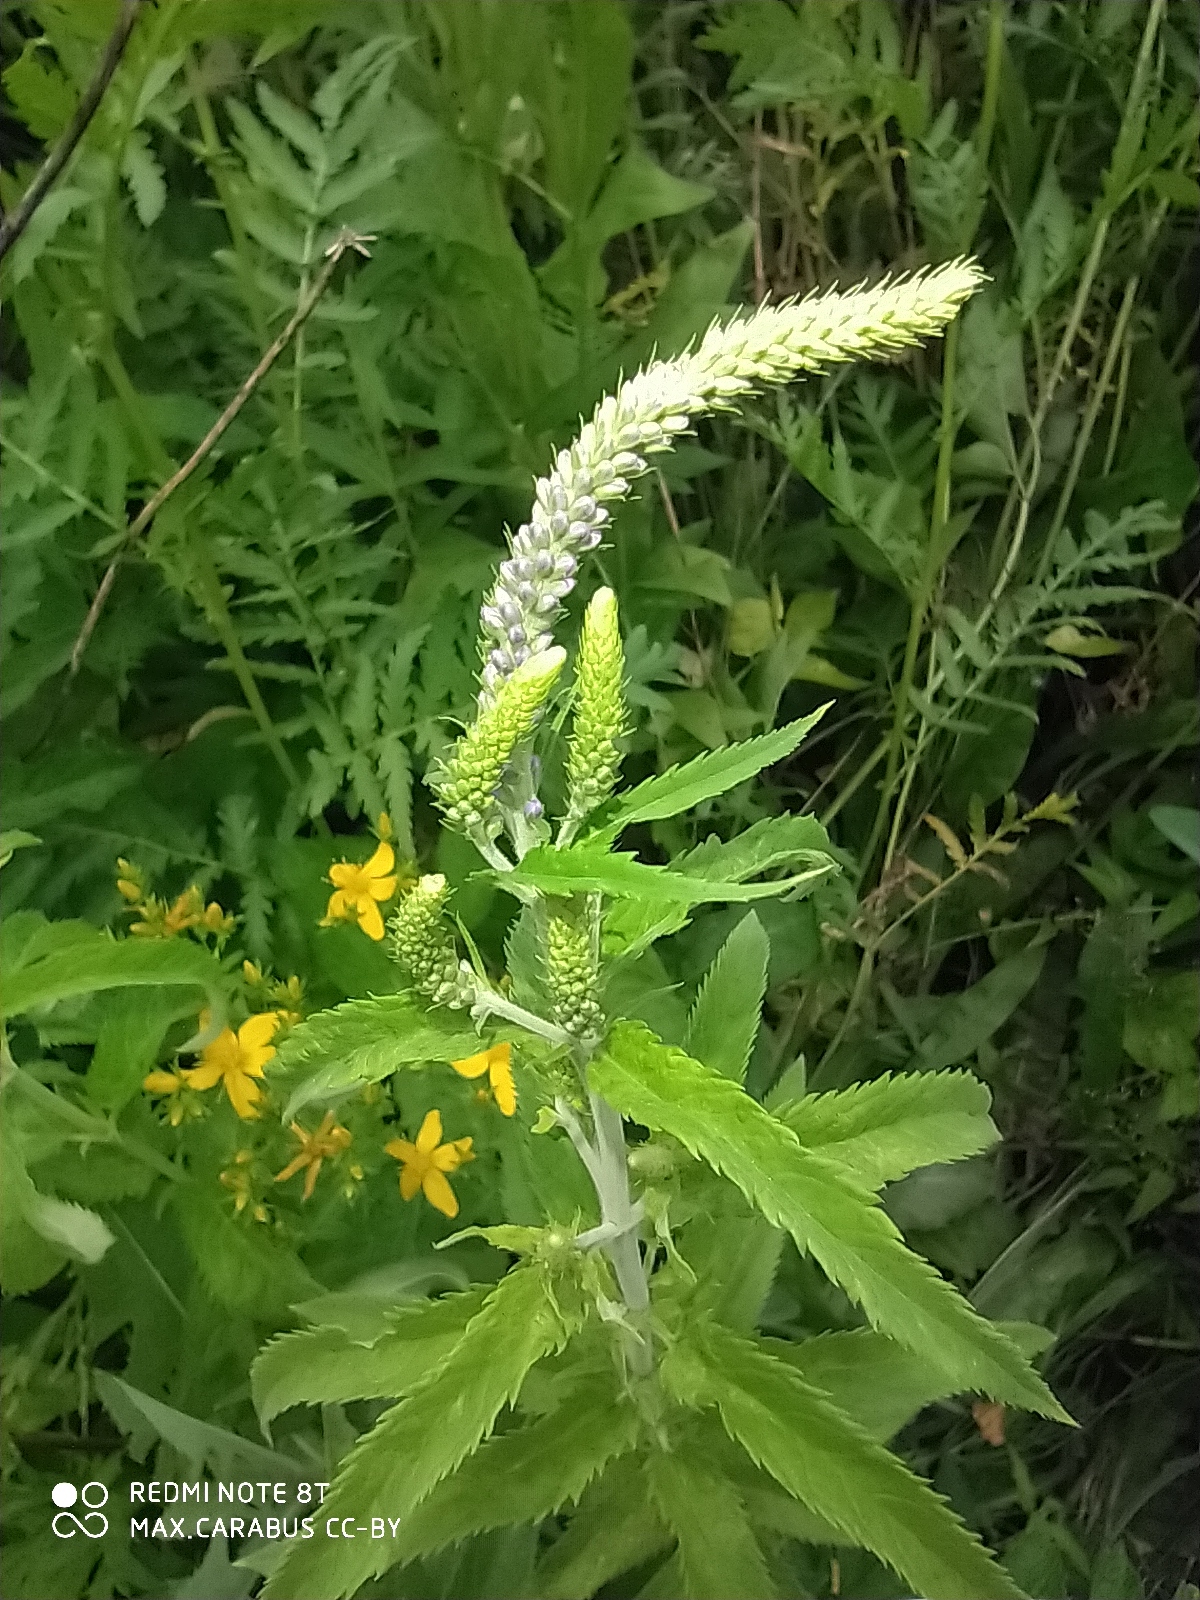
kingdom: Plantae
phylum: Tracheophyta
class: Magnoliopsida
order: Lamiales
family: Plantaginaceae
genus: Veronica
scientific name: Veronica longifolia
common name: Garden speedwell
